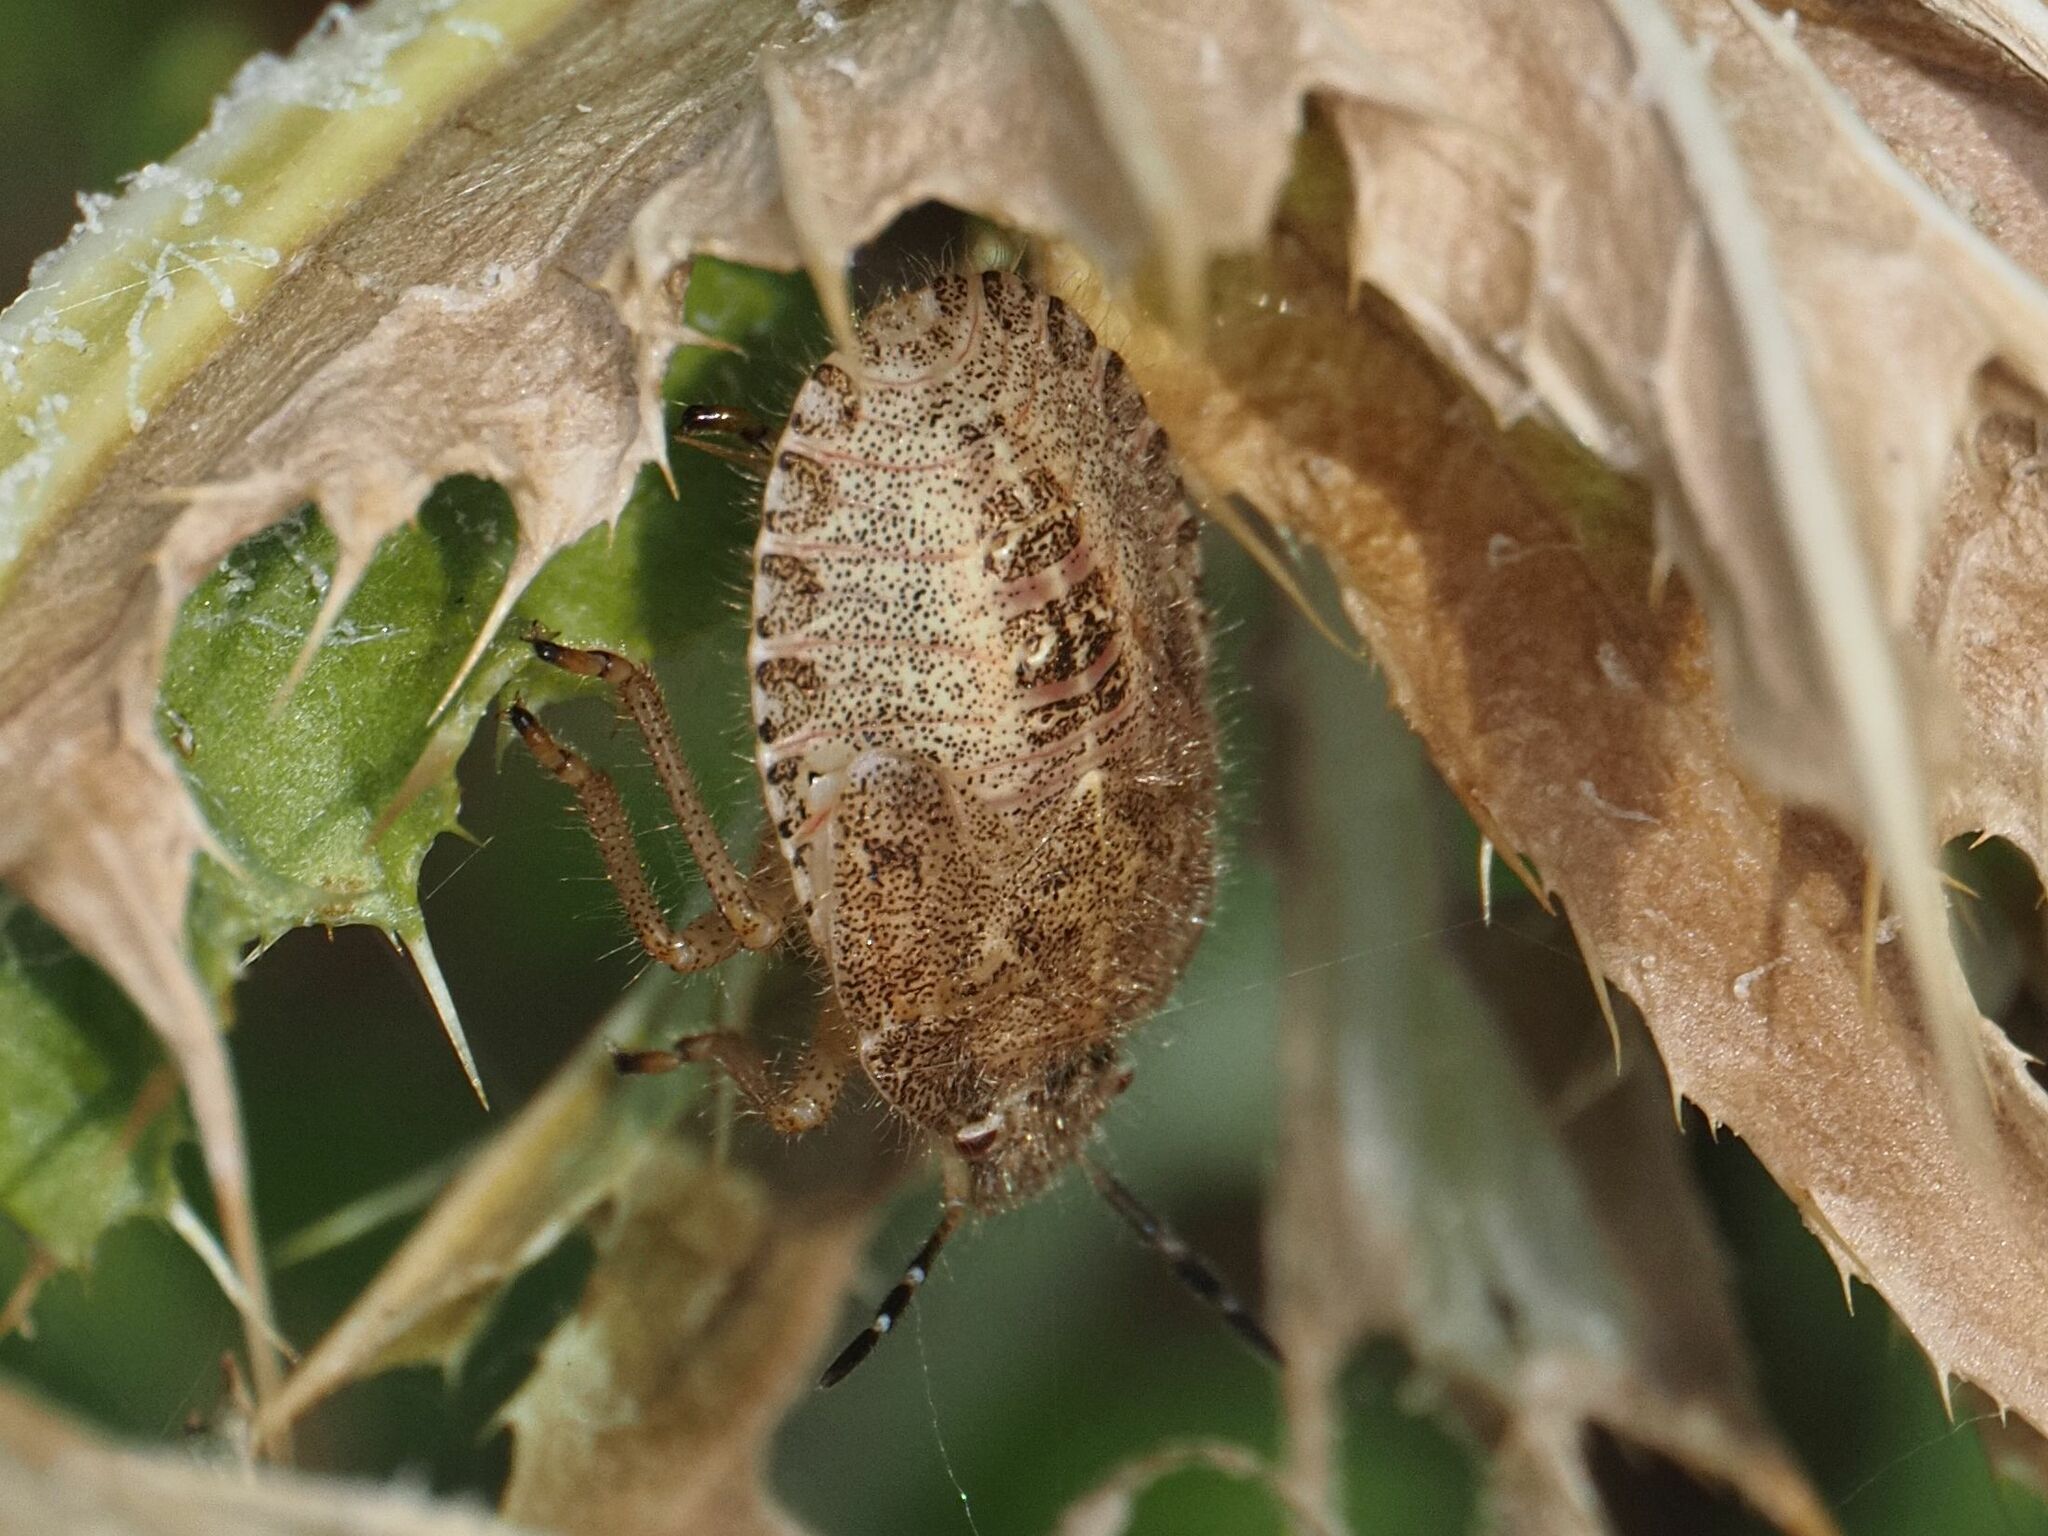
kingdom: Animalia
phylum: Arthropoda
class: Insecta
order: Hemiptera
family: Pentatomidae
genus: Dolycoris
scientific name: Dolycoris baccarum
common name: Sloe bug
